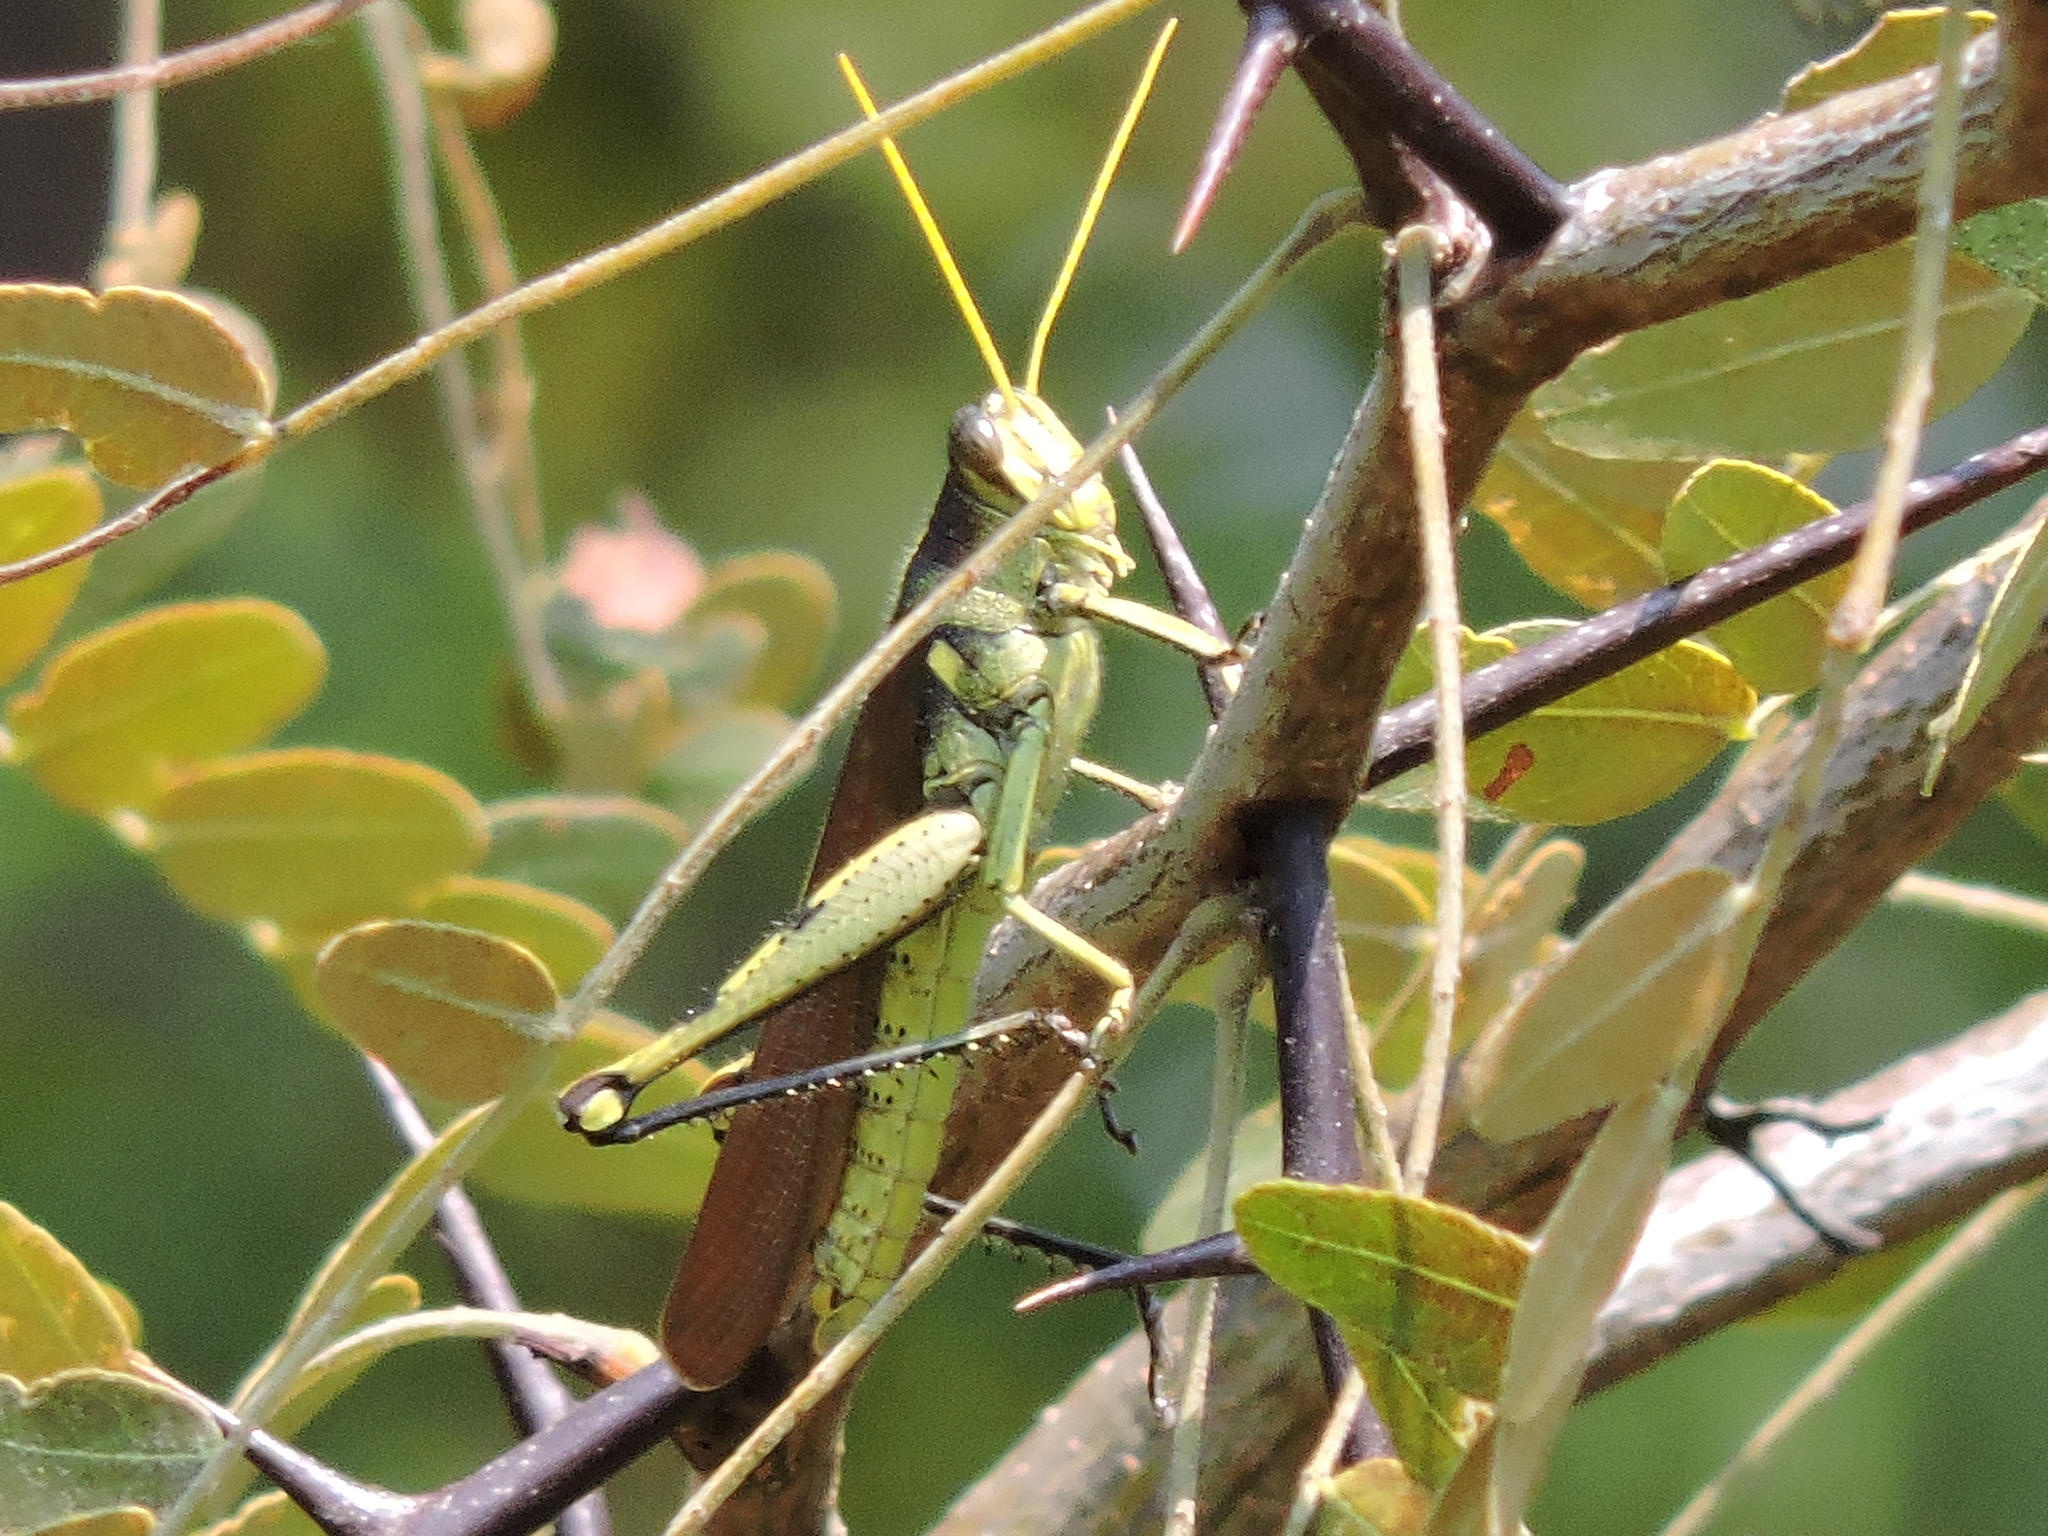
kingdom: Animalia
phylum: Arthropoda
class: Insecta
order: Orthoptera
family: Acrididae
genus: Schistocerca
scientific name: Schistocerca obscura
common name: Obscure bird grasshopper
